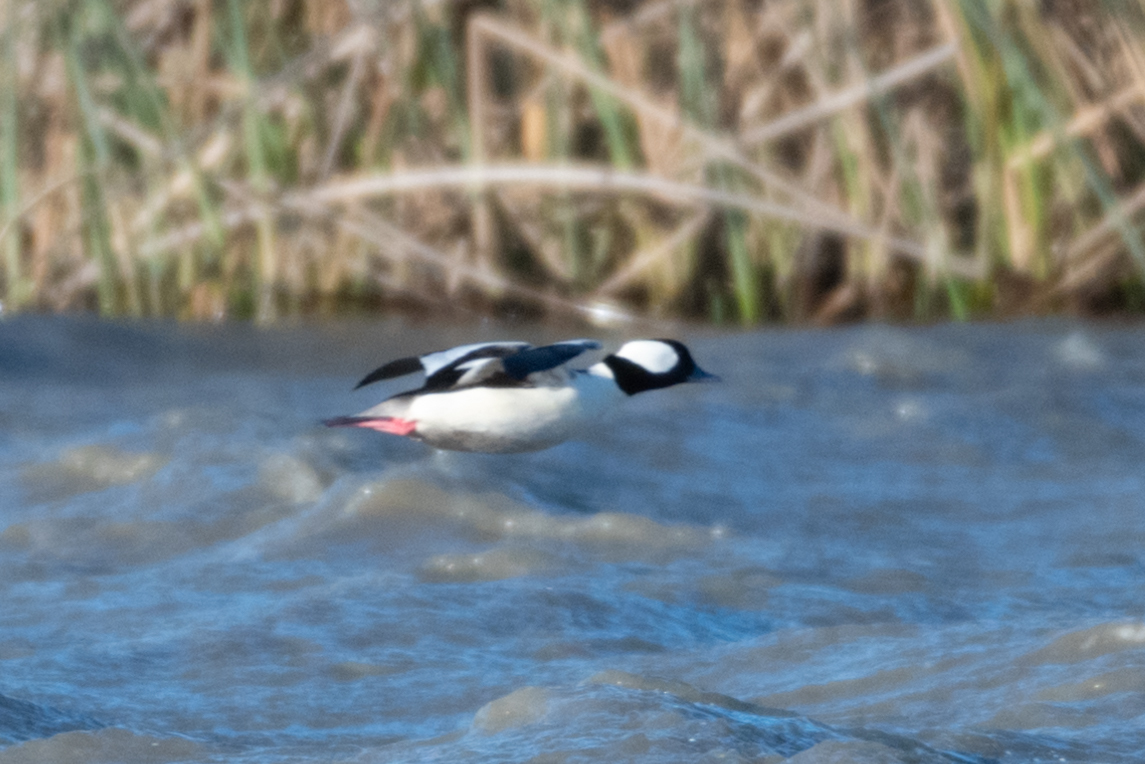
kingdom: Animalia
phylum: Chordata
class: Aves
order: Anseriformes
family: Anatidae
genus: Bucephala
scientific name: Bucephala albeola
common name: Bufflehead
